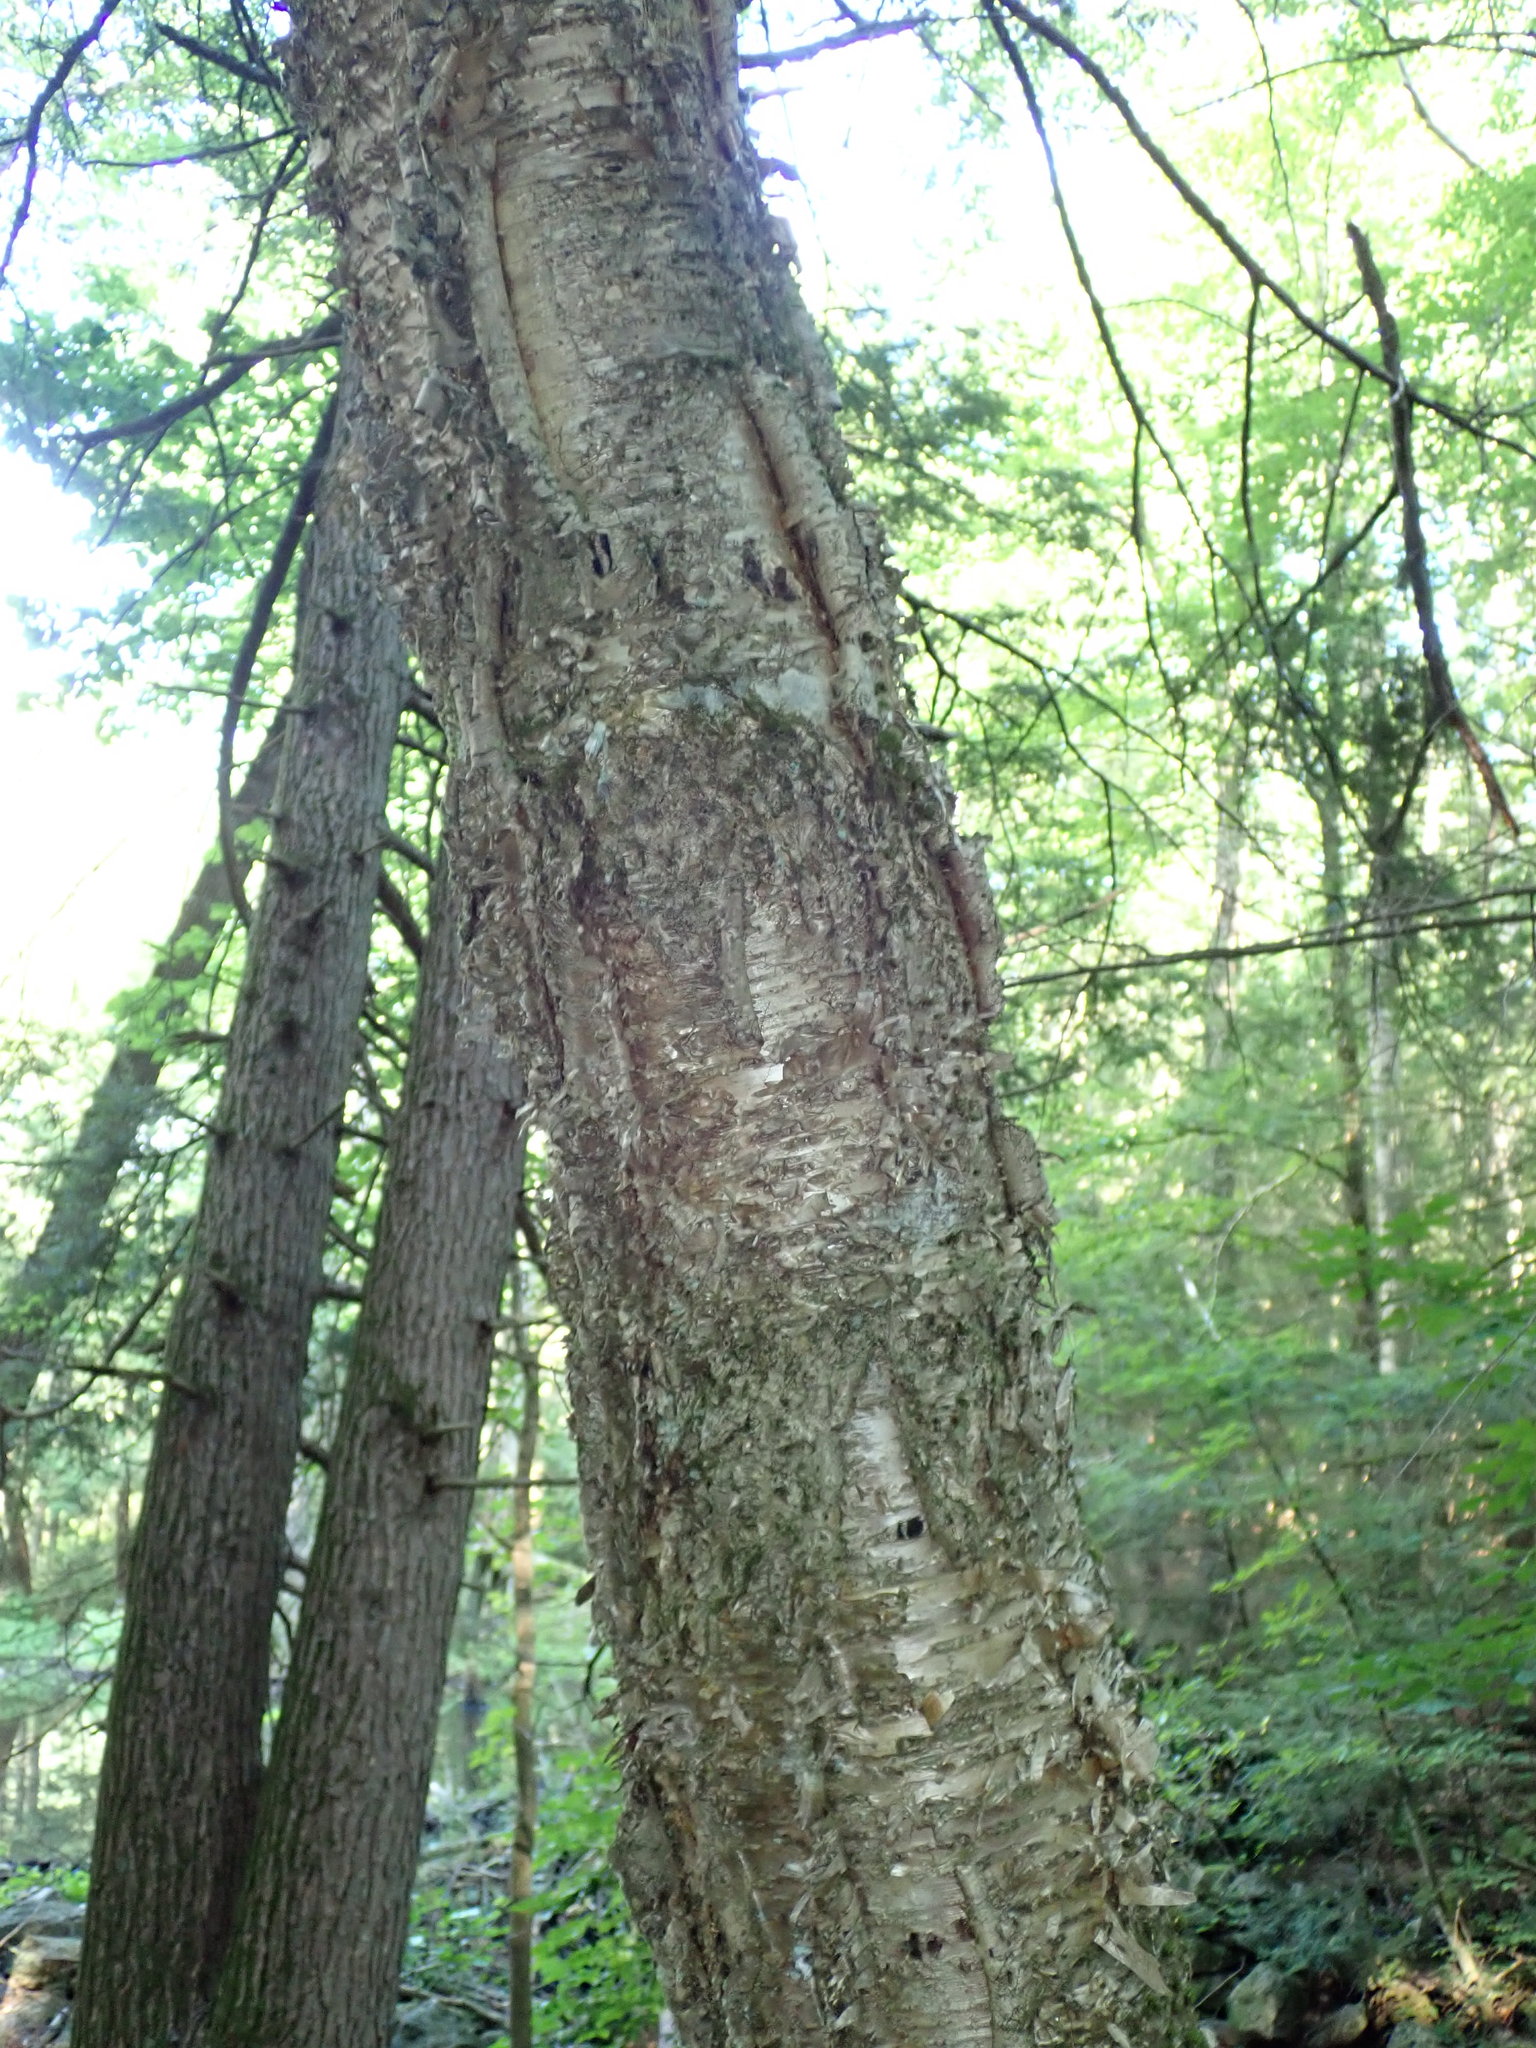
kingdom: Plantae
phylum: Tracheophyta
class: Magnoliopsida
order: Fagales
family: Betulaceae
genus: Betula
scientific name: Betula alleghaniensis
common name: Yellow birch
